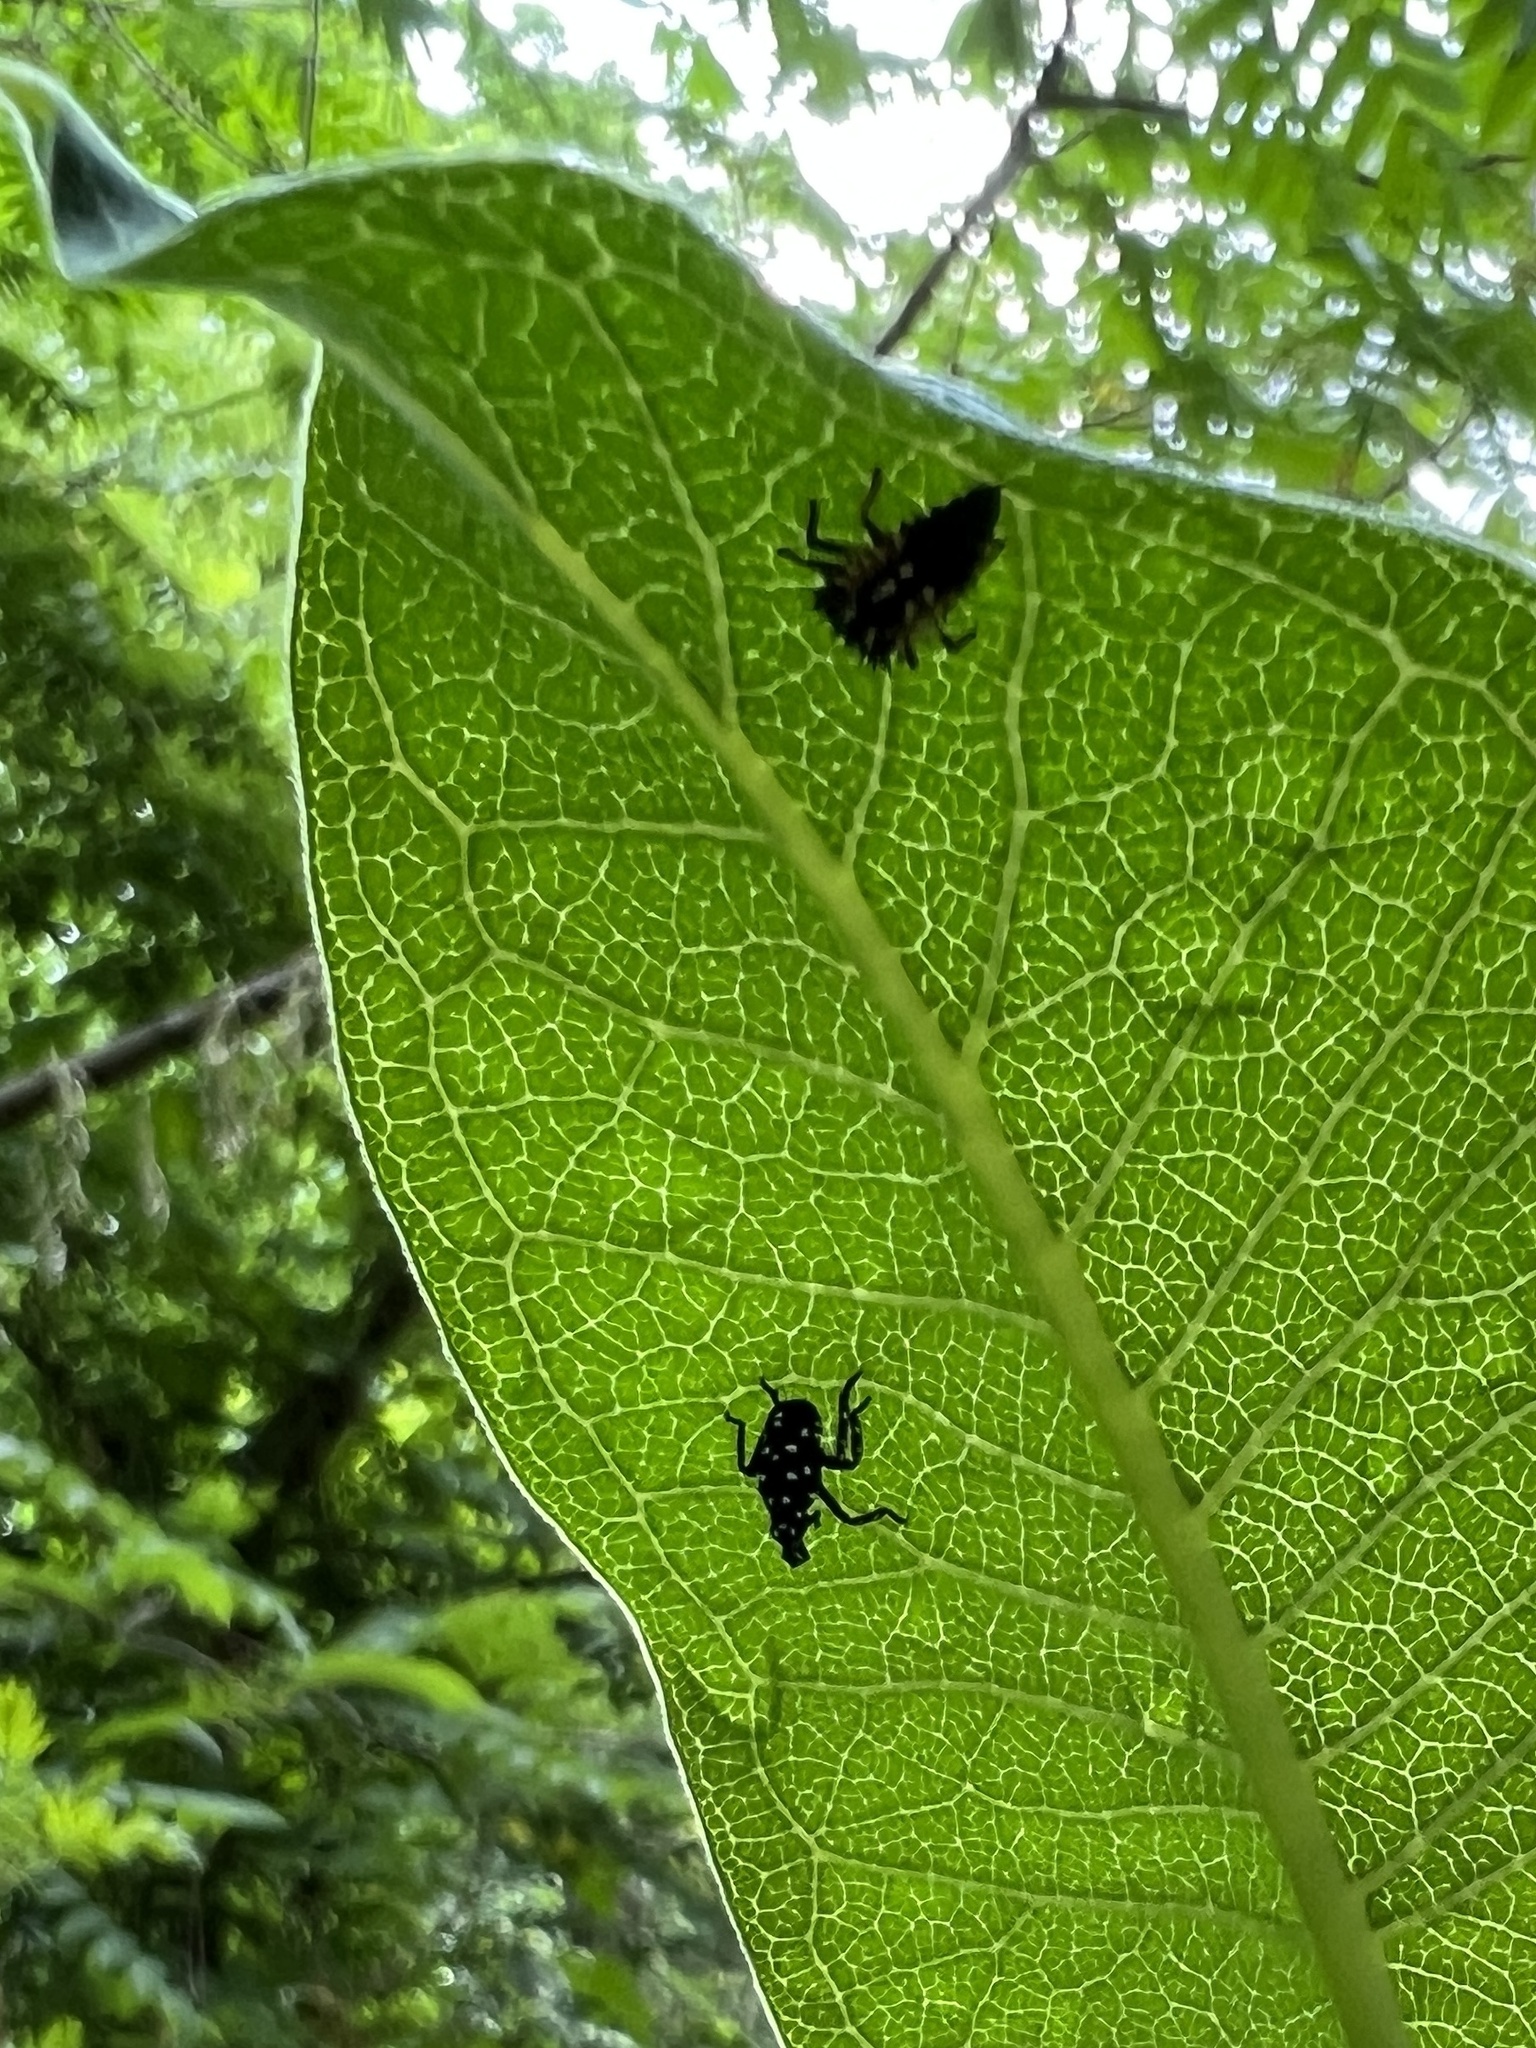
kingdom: Animalia
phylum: Arthropoda
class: Insecta
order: Hemiptera
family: Fulgoridae
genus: Lycorma
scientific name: Lycorma delicatula
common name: Spotted lanternfly
